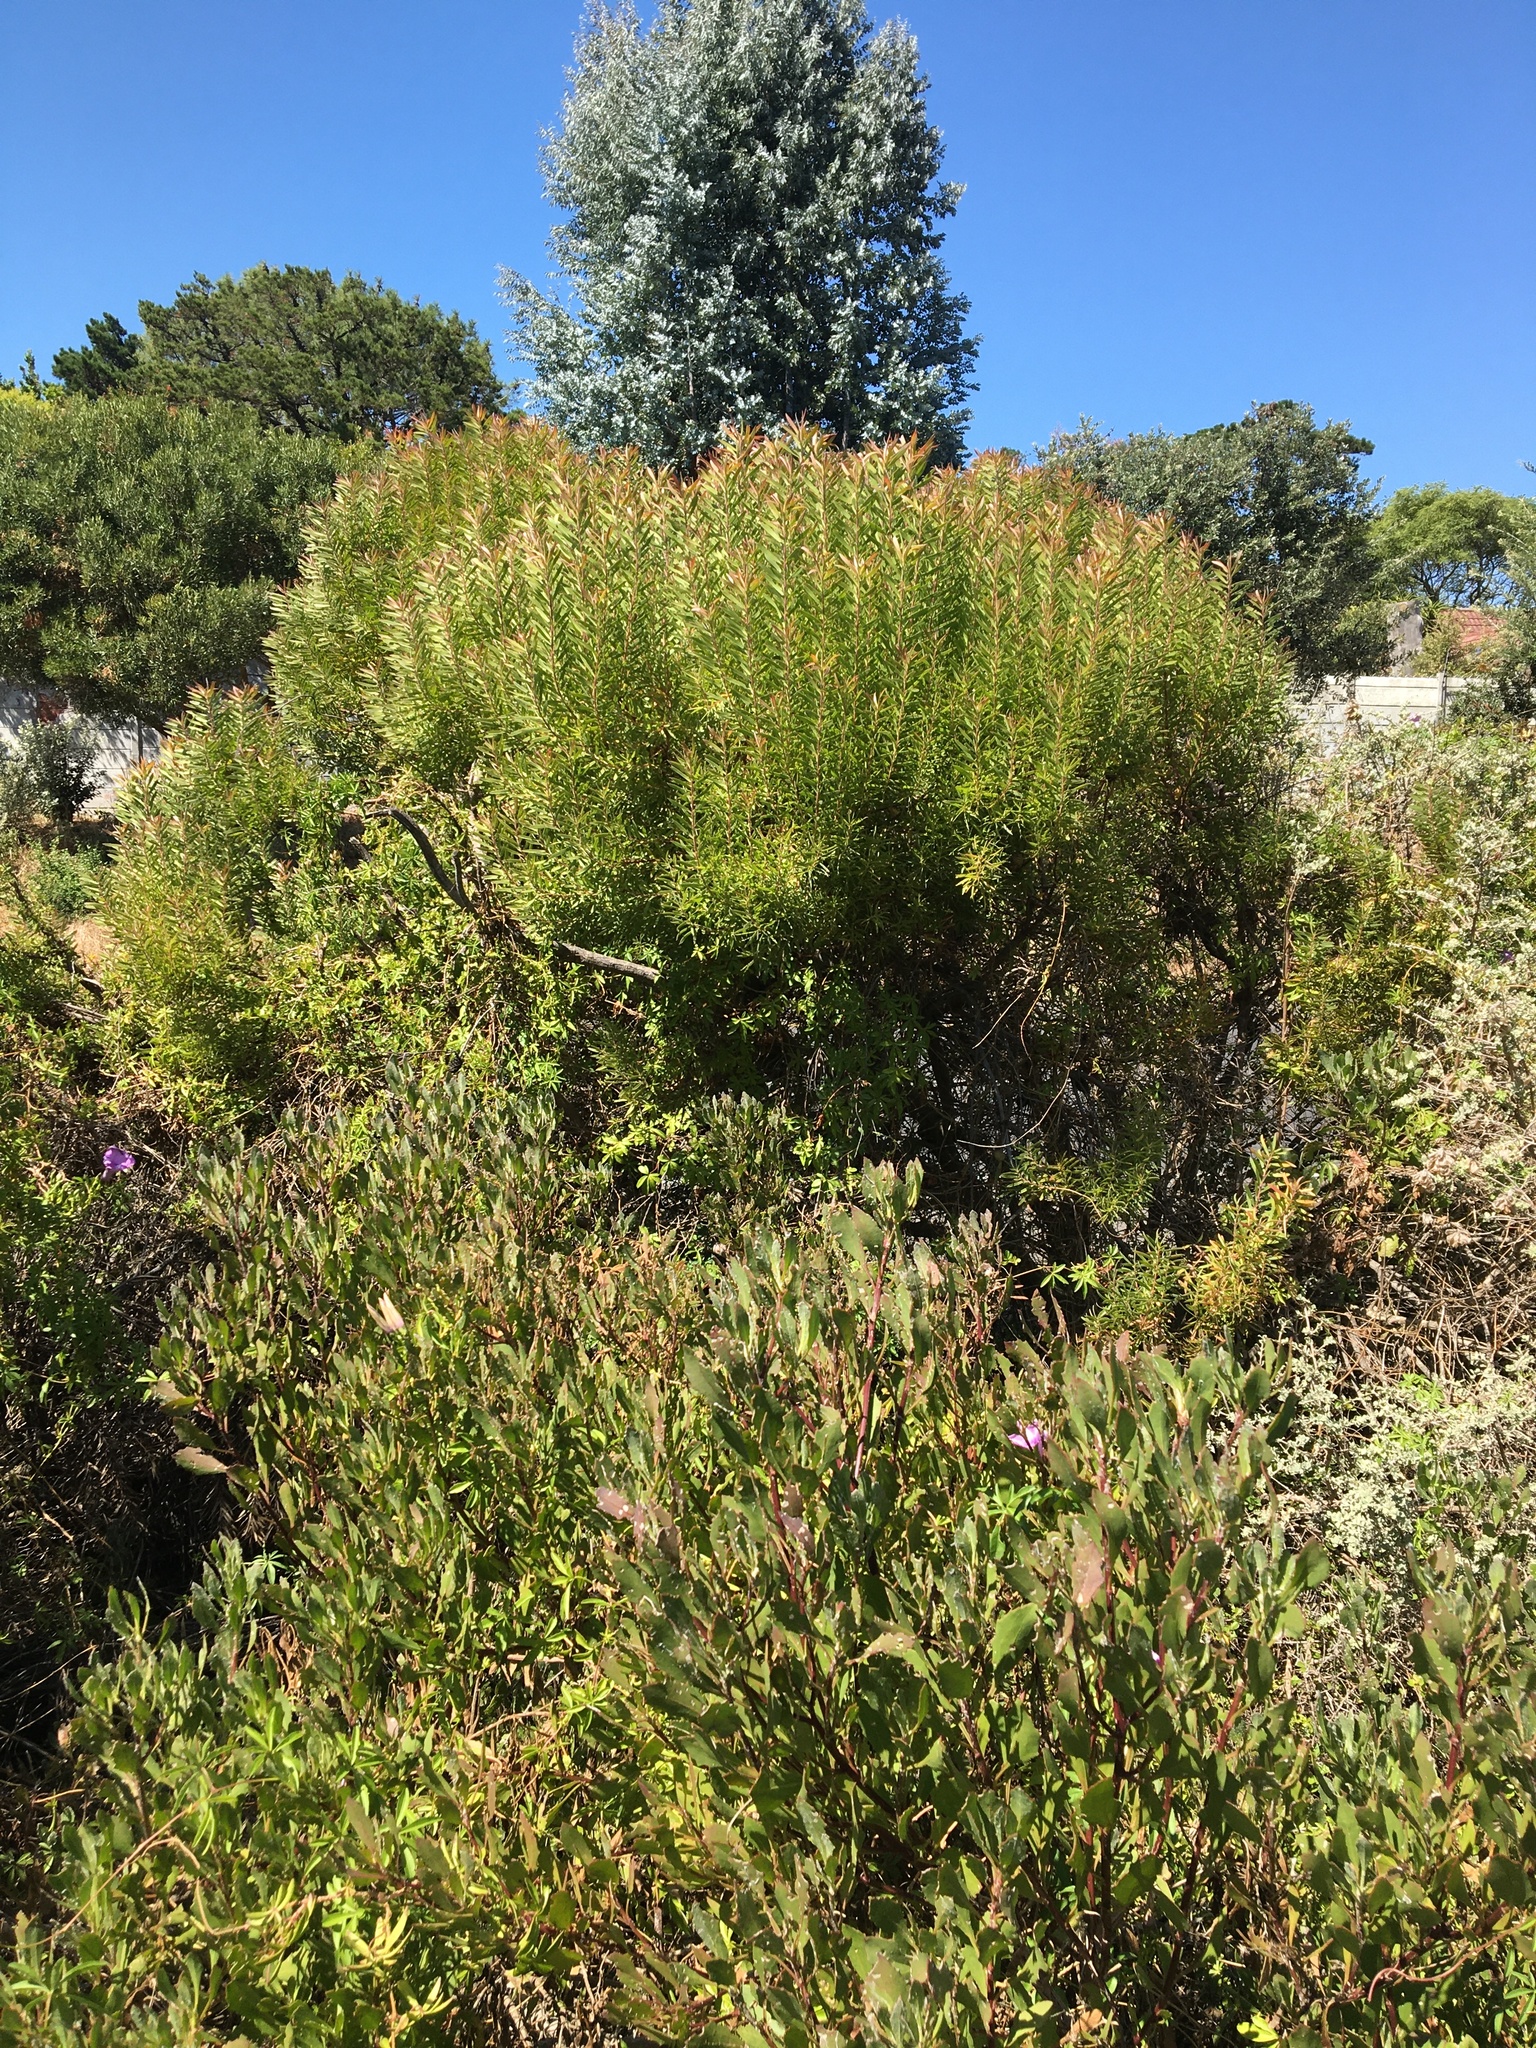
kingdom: Plantae
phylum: Tracheophyta
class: Magnoliopsida
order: Proteales
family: Proteaceae
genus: Leucadendron
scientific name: Leucadendron coniferum
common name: Dune conebush
